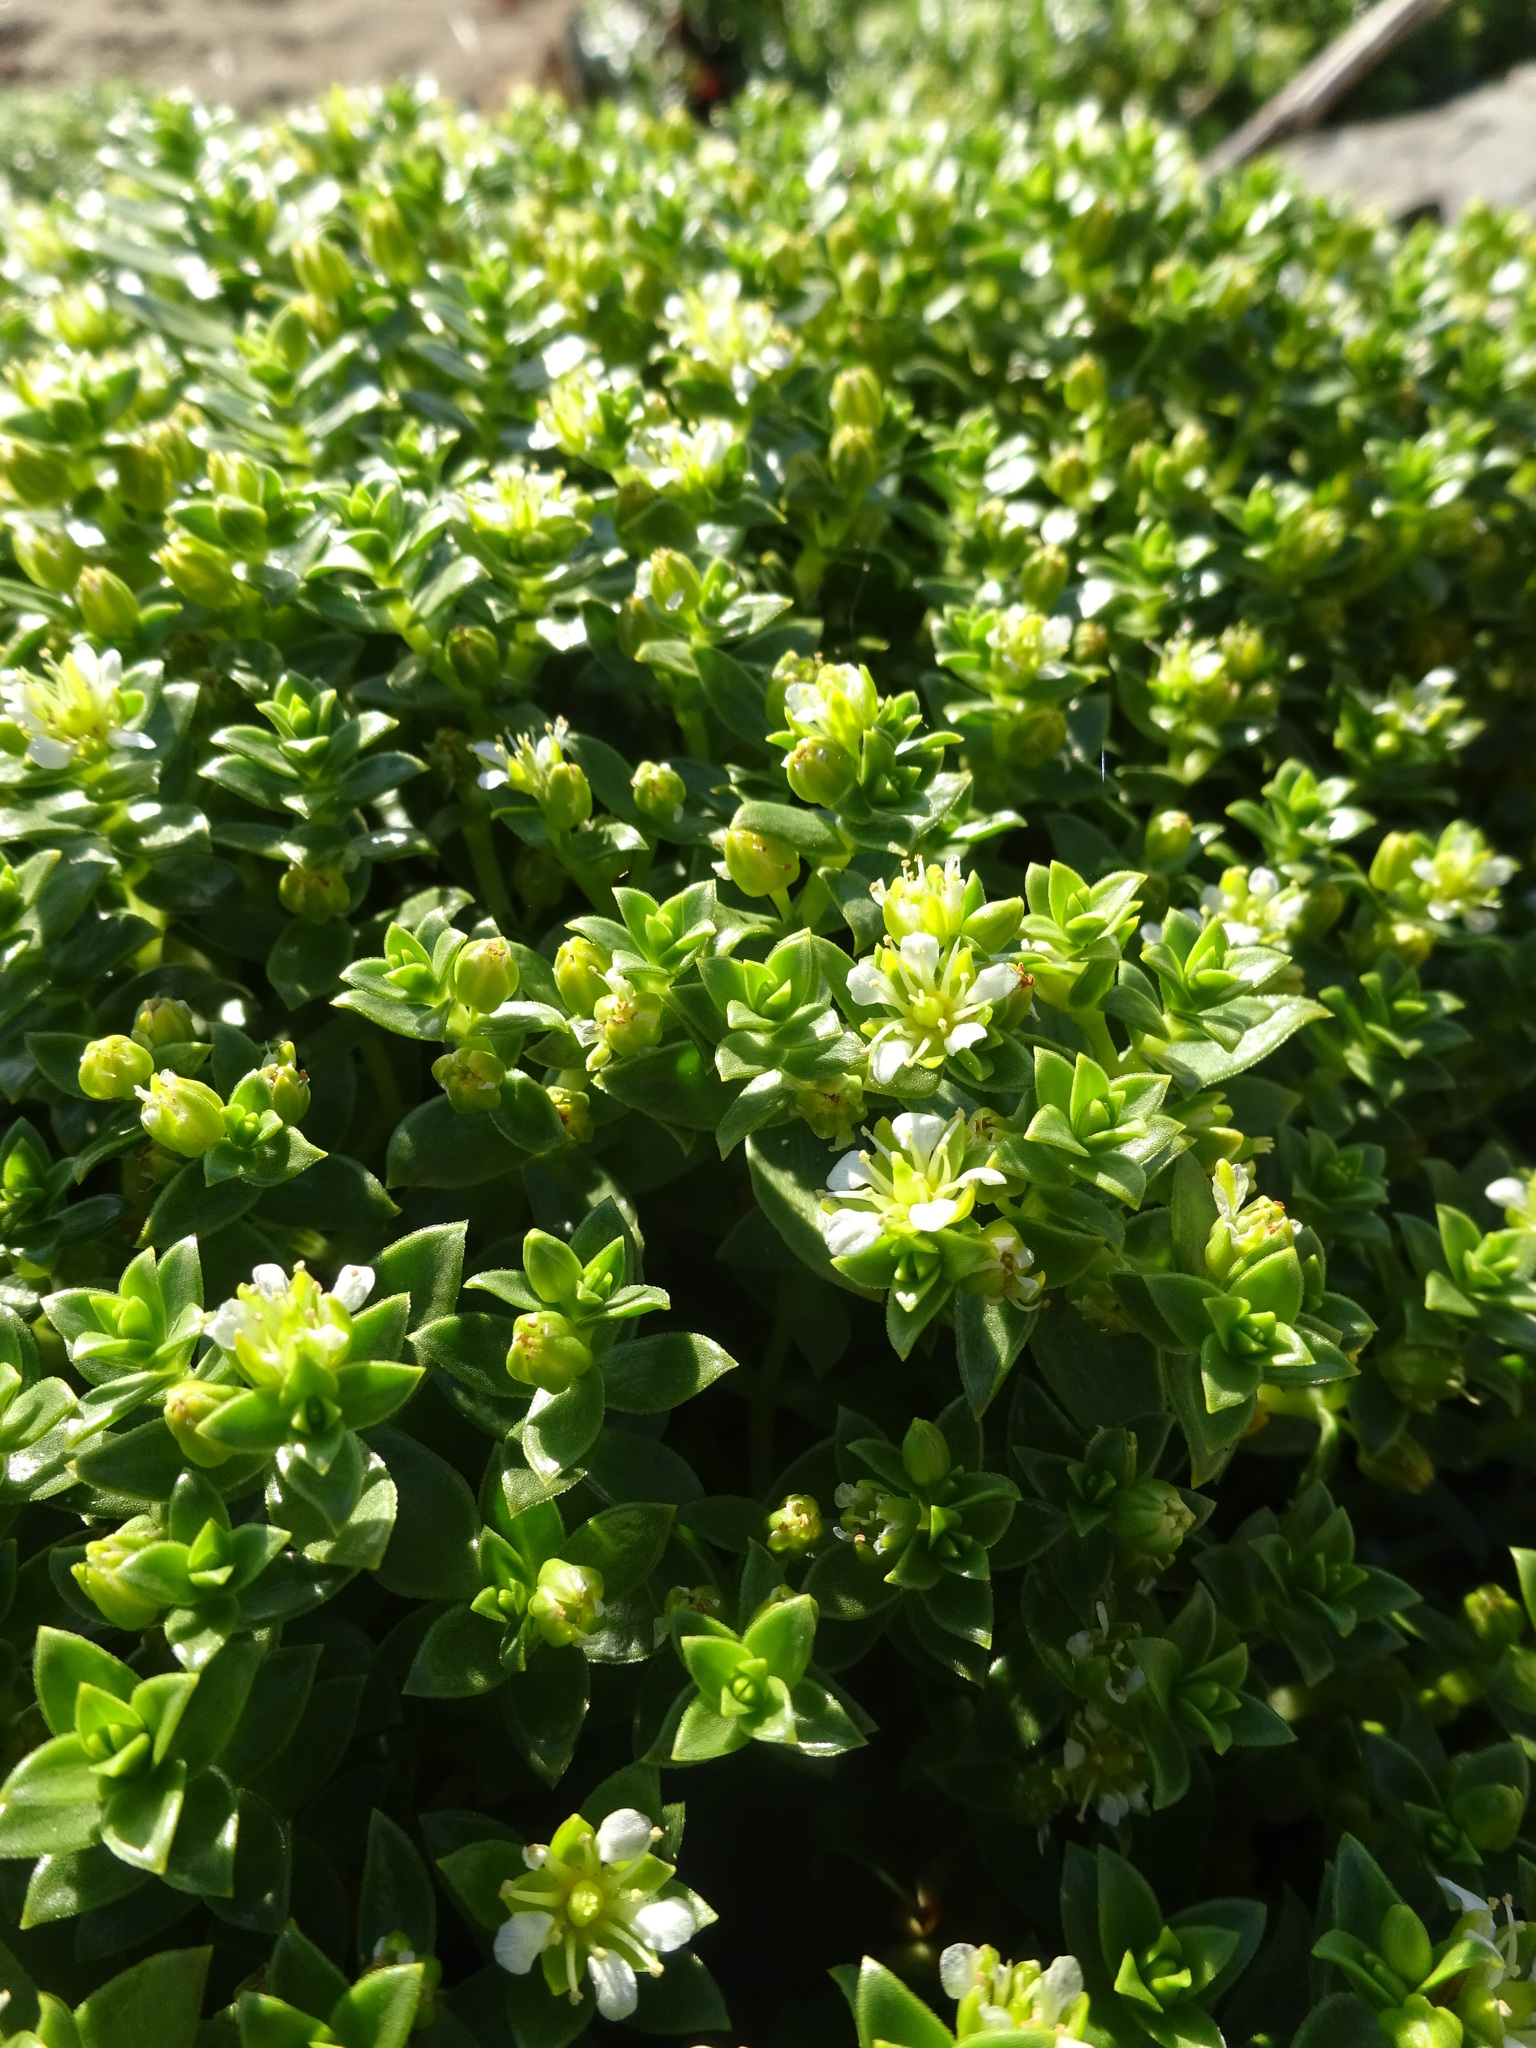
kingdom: Plantae
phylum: Tracheophyta
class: Magnoliopsida
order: Caryophyllales
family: Caryophyllaceae
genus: Honckenya
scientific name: Honckenya peploides
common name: Sea sandwort
